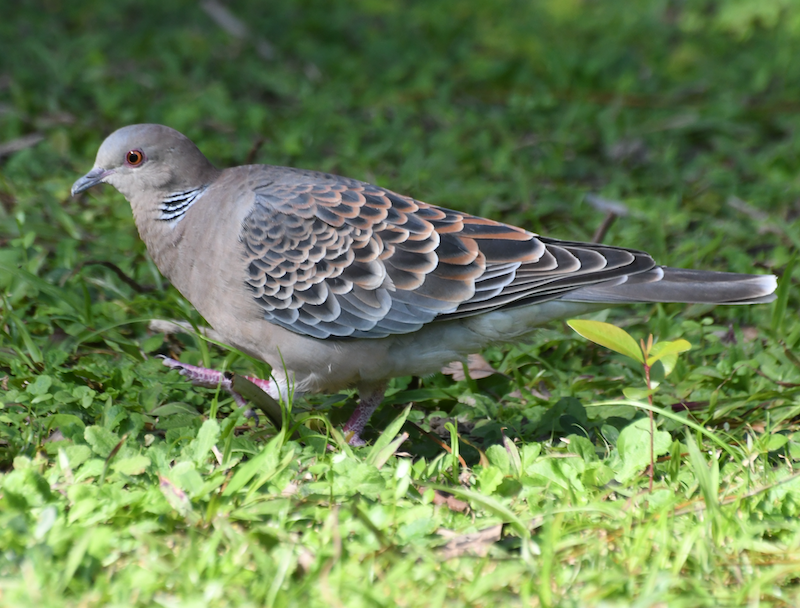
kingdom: Animalia
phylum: Chordata
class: Aves
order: Columbiformes
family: Columbidae
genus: Streptopelia
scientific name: Streptopelia orientalis
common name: Oriental turtle dove
